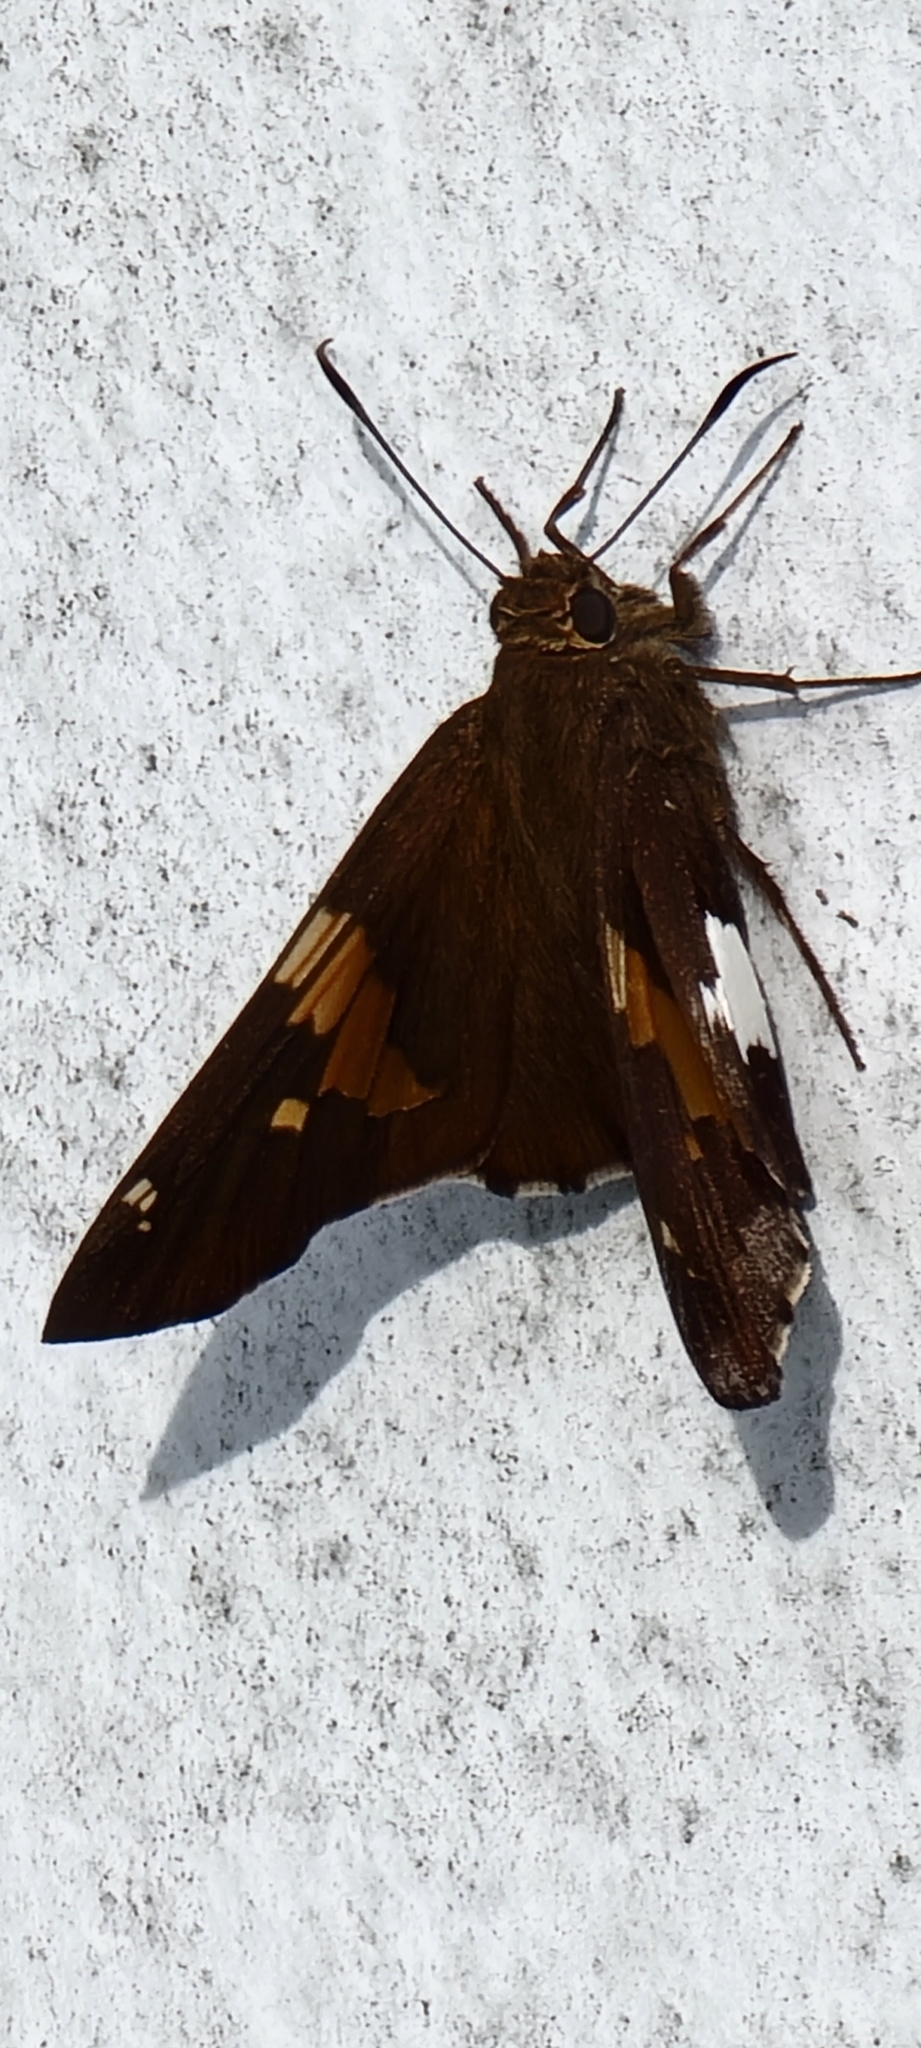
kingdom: Animalia
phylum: Arthropoda
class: Insecta
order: Lepidoptera
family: Hesperiidae
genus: Epargyreus
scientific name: Epargyreus clarus
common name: Silver-spotted skipper
